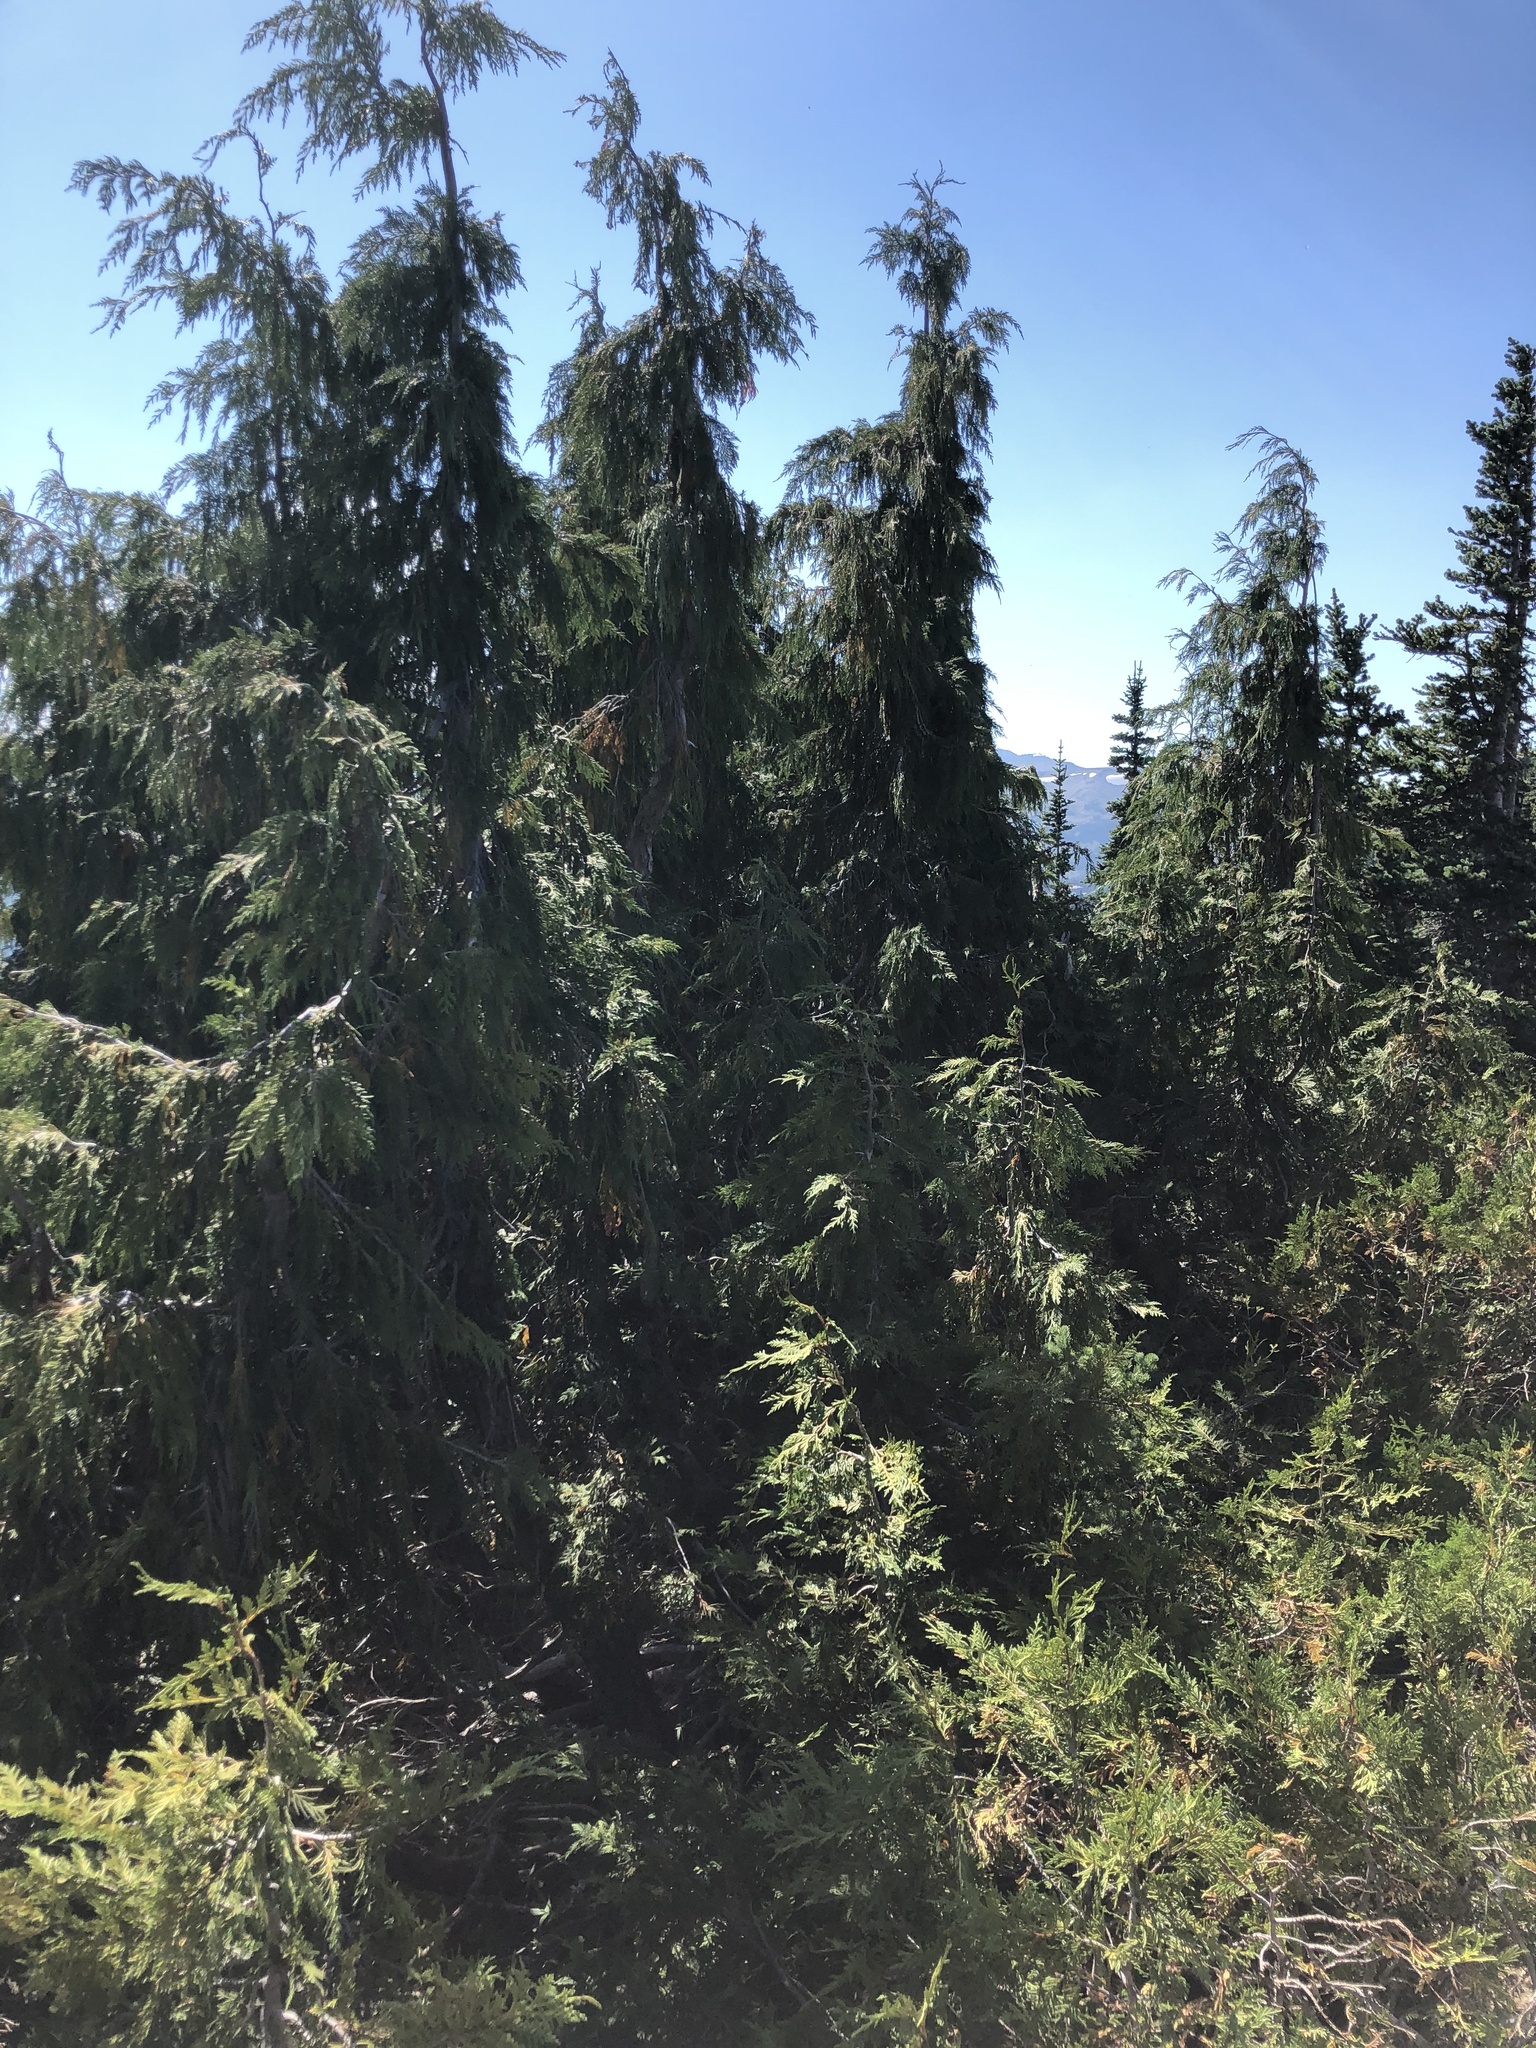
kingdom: Plantae
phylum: Tracheophyta
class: Pinopsida
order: Pinales
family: Cupressaceae
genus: Xanthocyparis
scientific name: Xanthocyparis nootkatensis
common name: Nootka cypress
